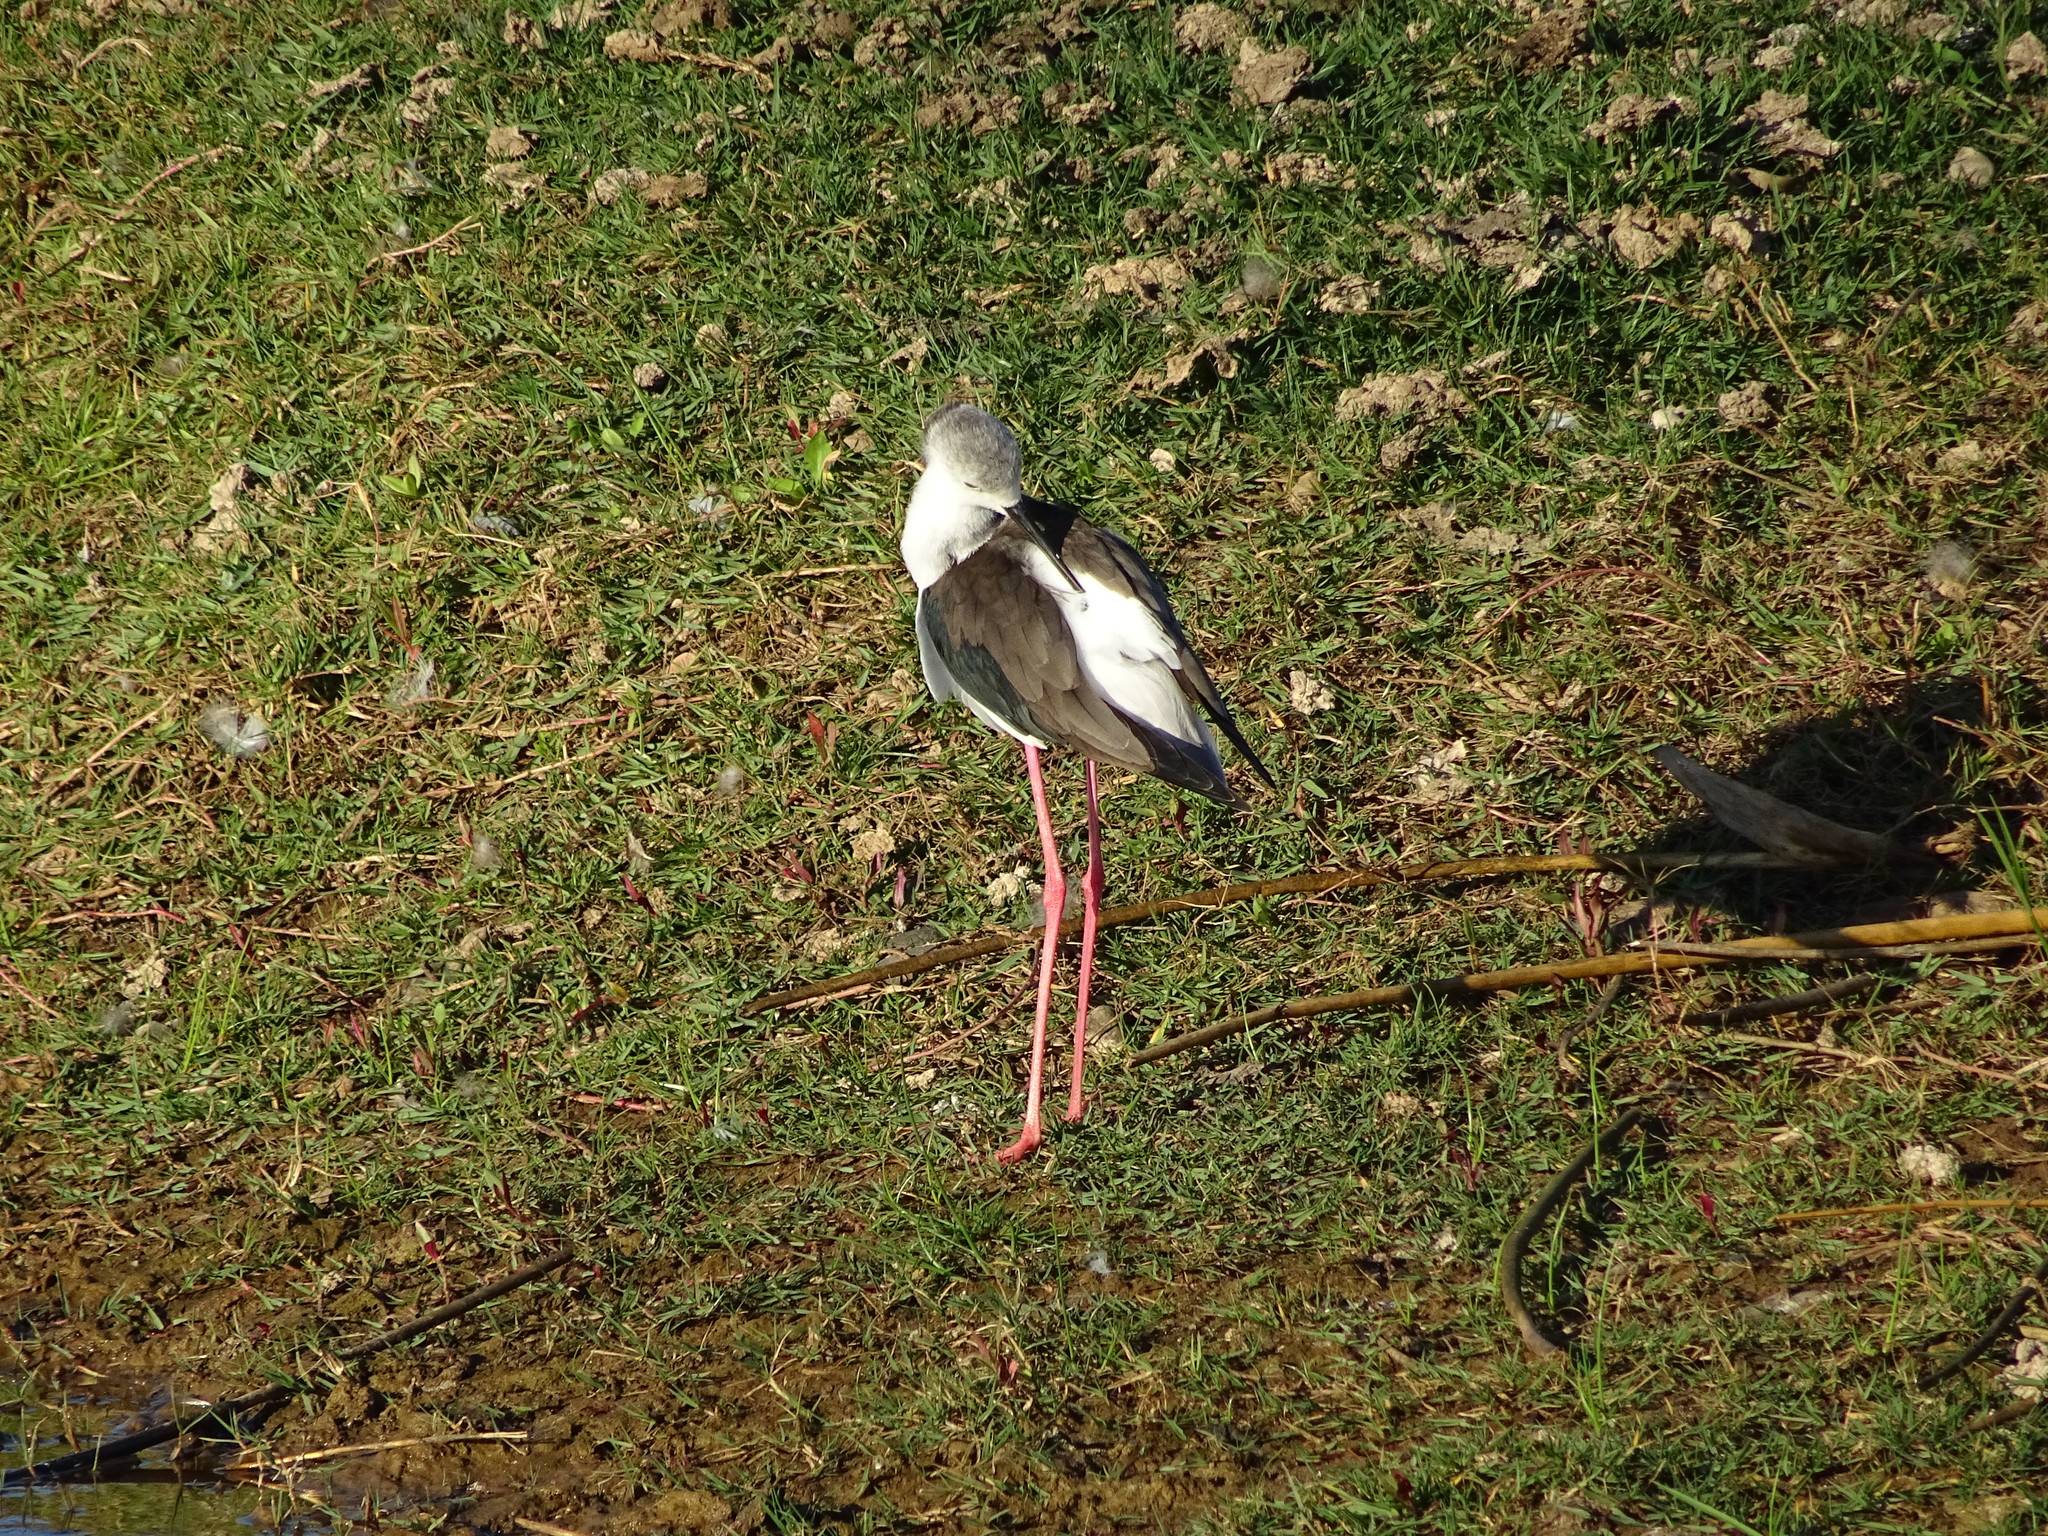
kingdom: Animalia
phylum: Chordata
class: Aves
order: Charadriiformes
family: Recurvirostridae
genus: Himantopus
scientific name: Himantopus himantopus
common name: Black-winged stilt
